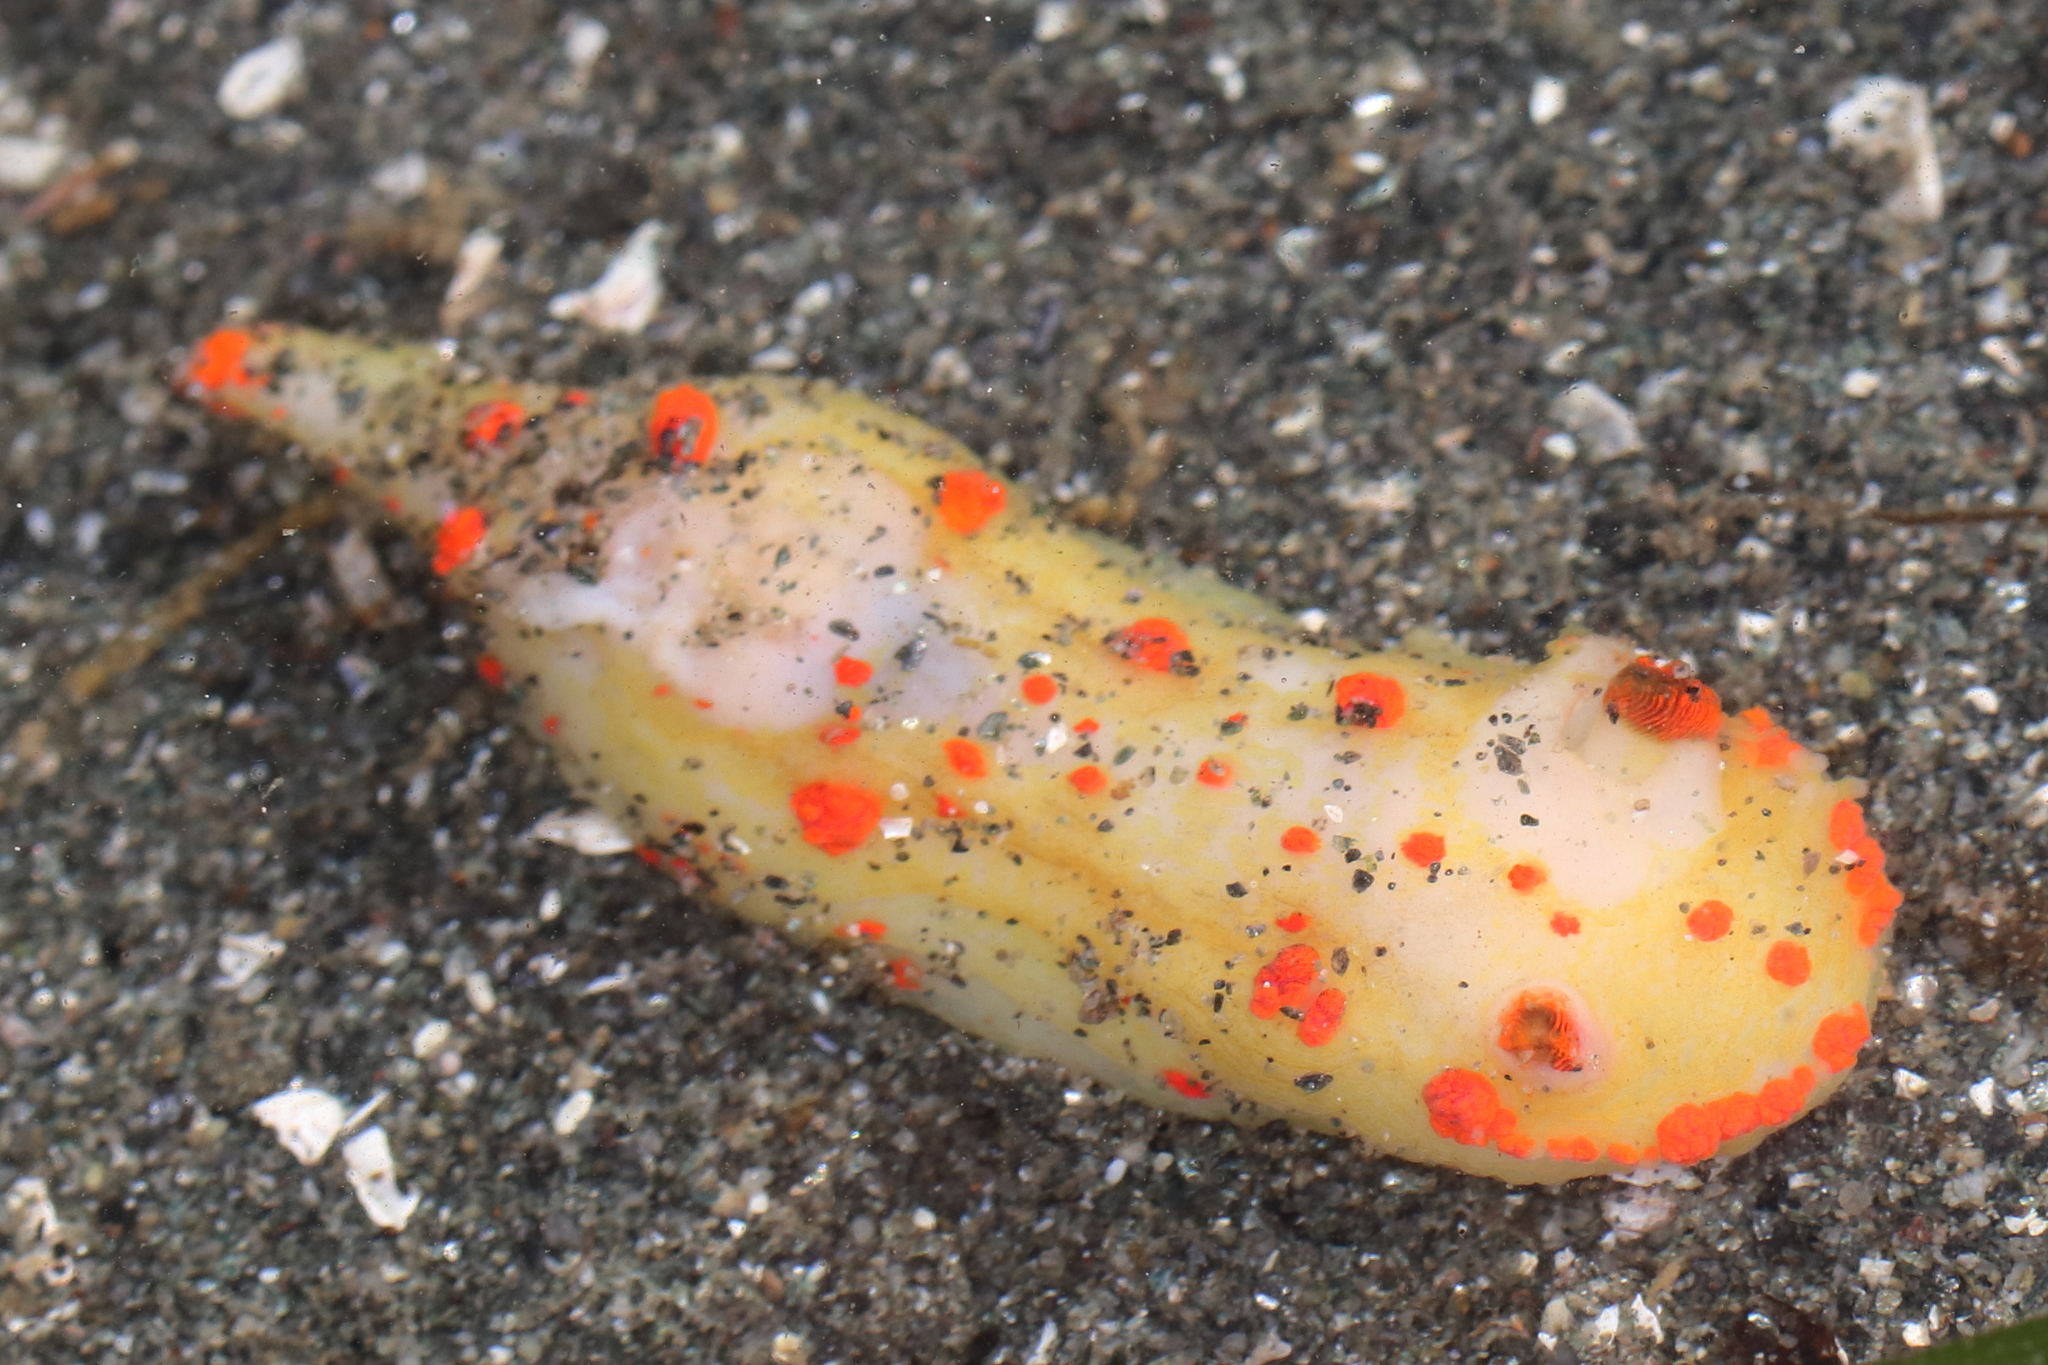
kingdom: Animalia
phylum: Mollusca
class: Gastropoda
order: Nudibranchia
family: Polyceridae
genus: Triopha
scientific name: Triopha catalinae
